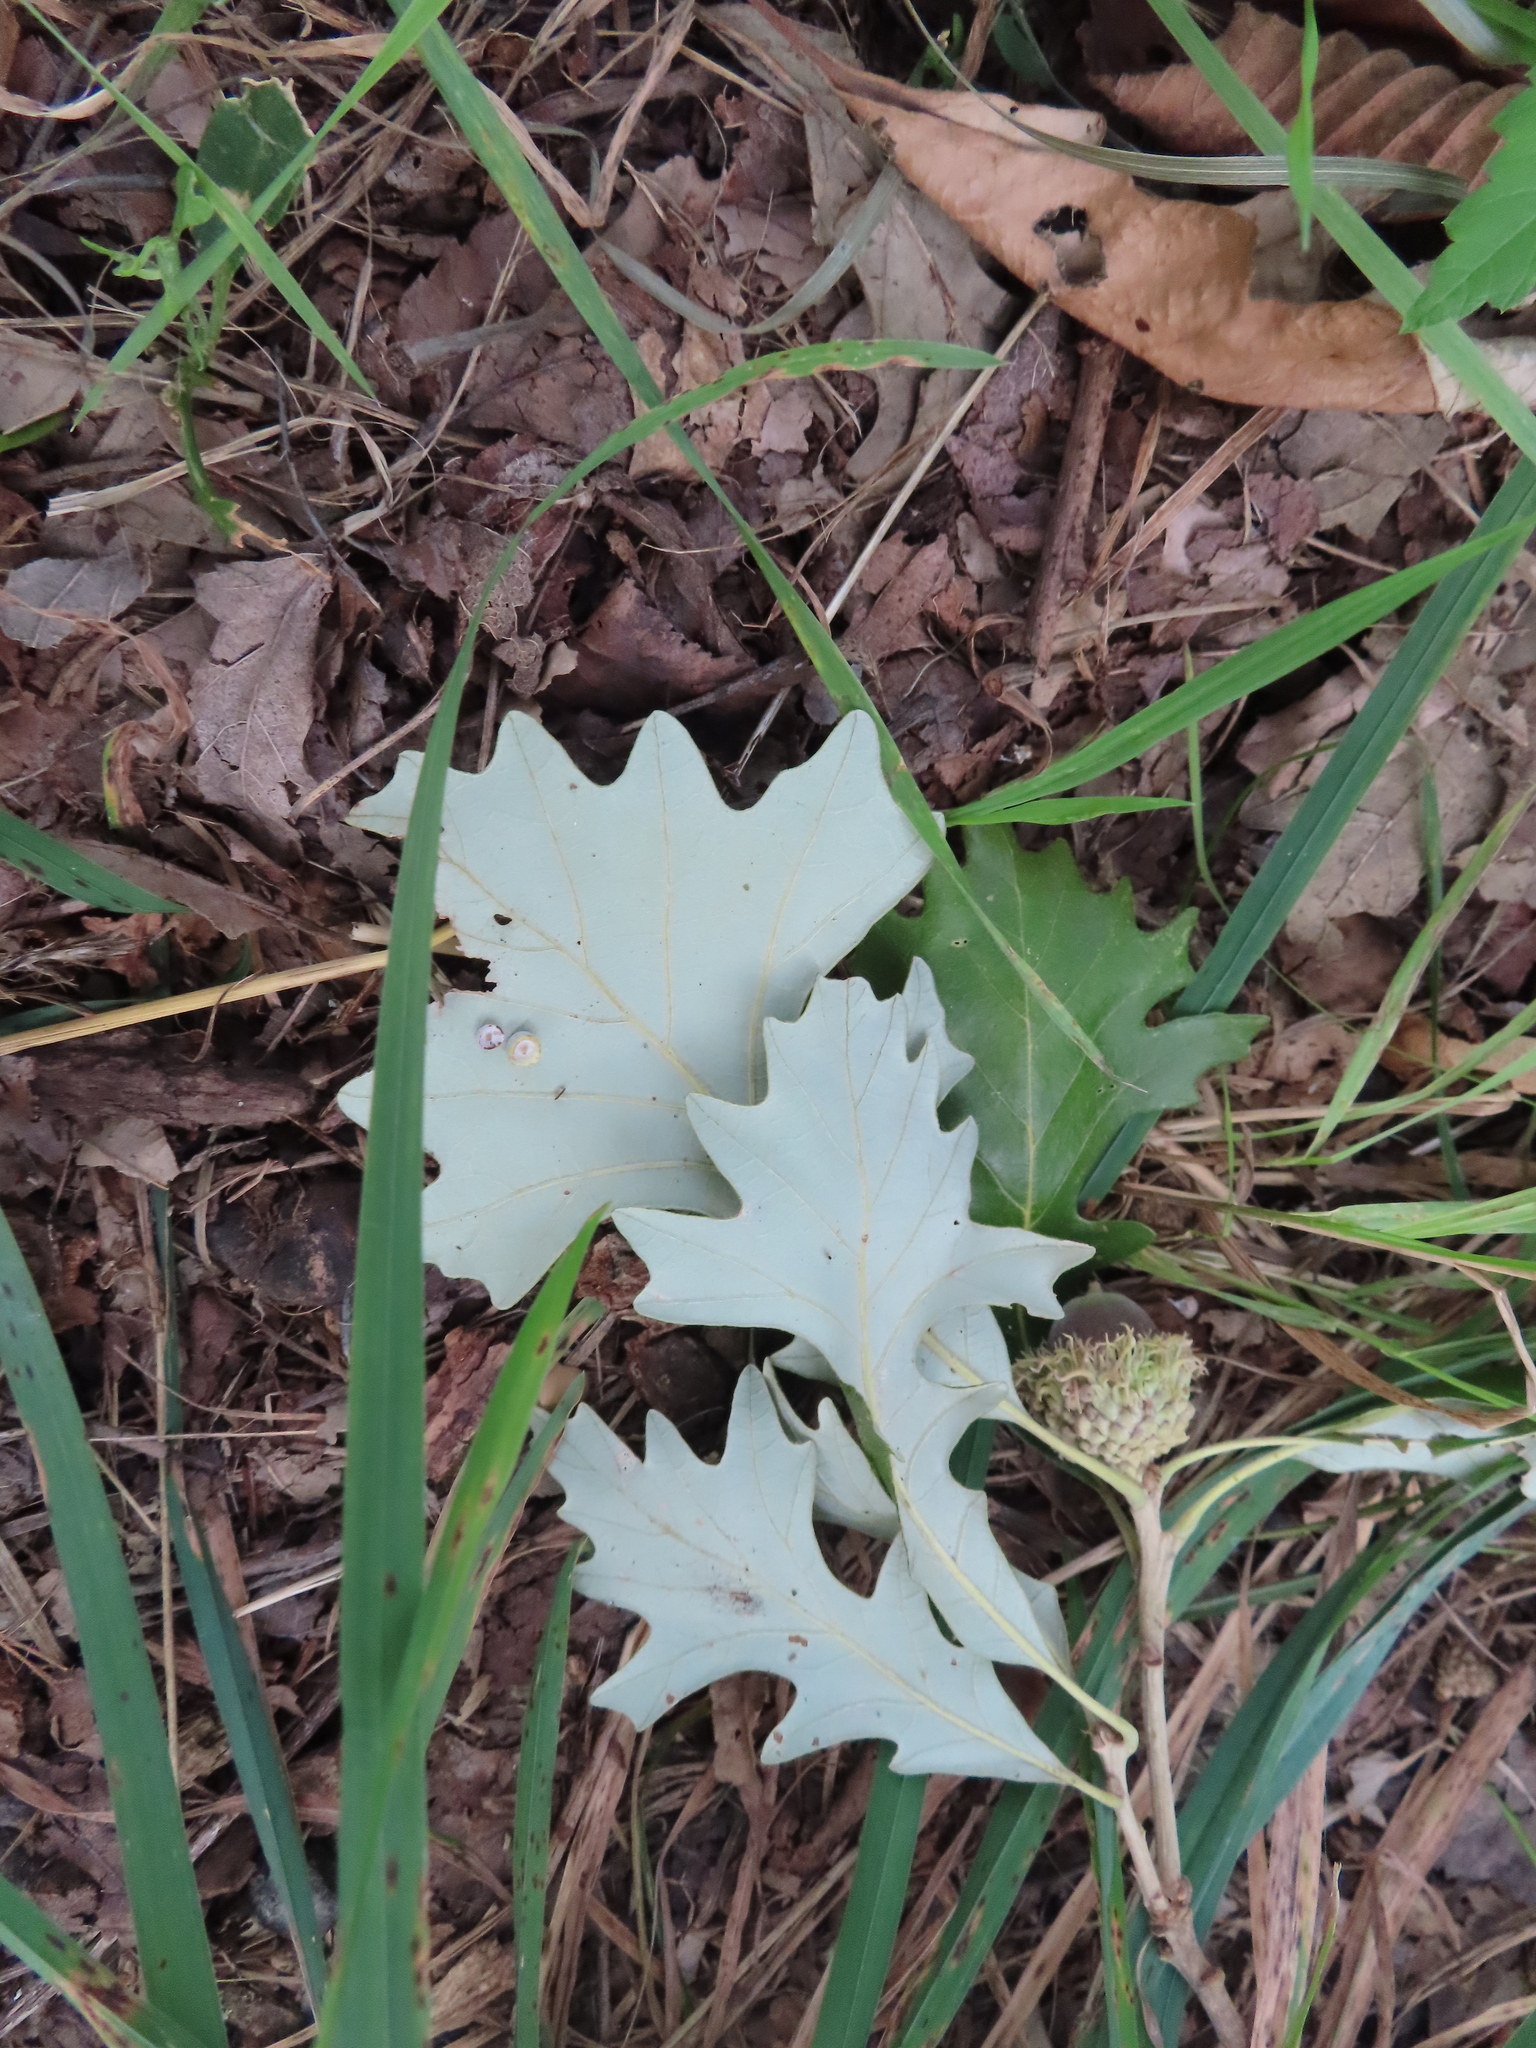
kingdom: Plantae
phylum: Tracheophyta
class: Magnoliopsida
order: Fagales
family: Fagaceae
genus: Quercus
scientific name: Quercus macrocarpa
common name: Bur oak
